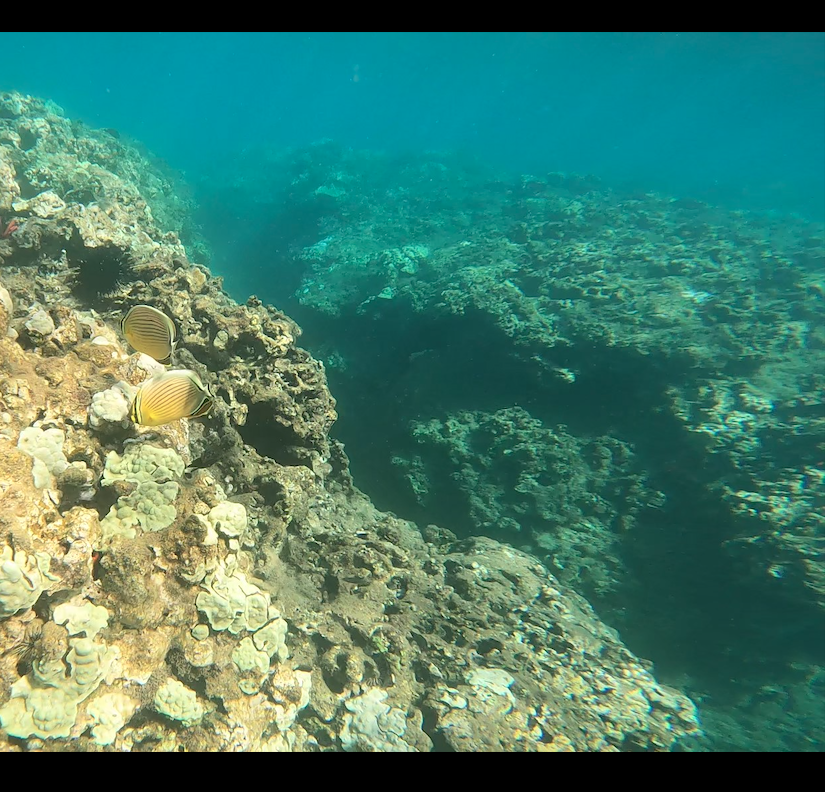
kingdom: Animalia
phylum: Chordata
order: Perciformes
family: Chaetodontidae
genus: Chaetodon
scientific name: Chaetodon lunulatus
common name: Redfin butterflyfish
